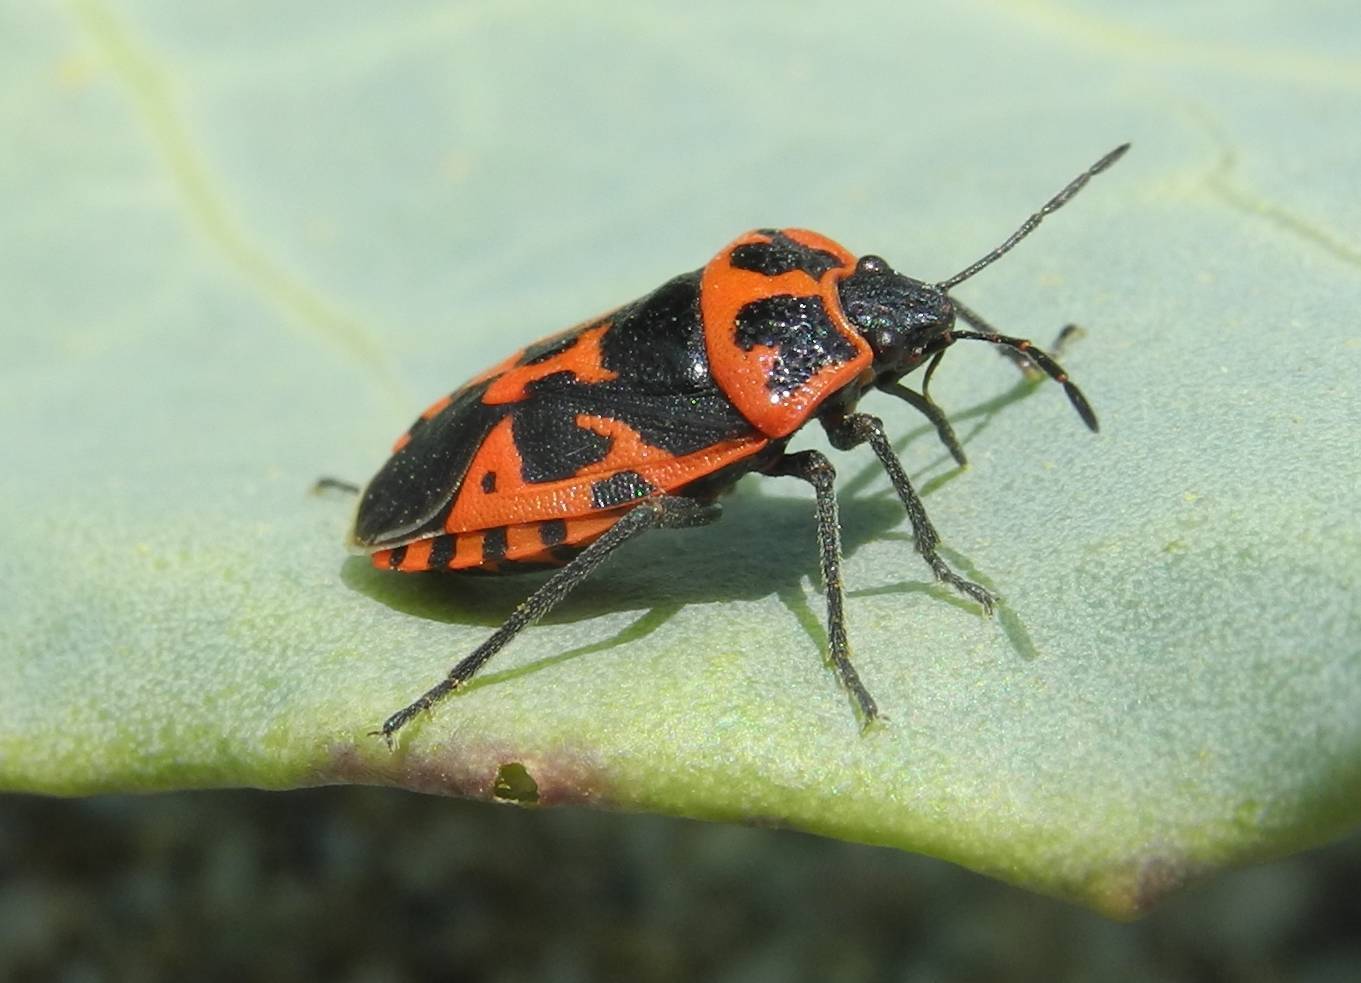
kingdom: Animalia
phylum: Arthropoda
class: Insecta
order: Hemiptera
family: Pentatomidae
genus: Eurydema
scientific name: Eurydema spectabilis
